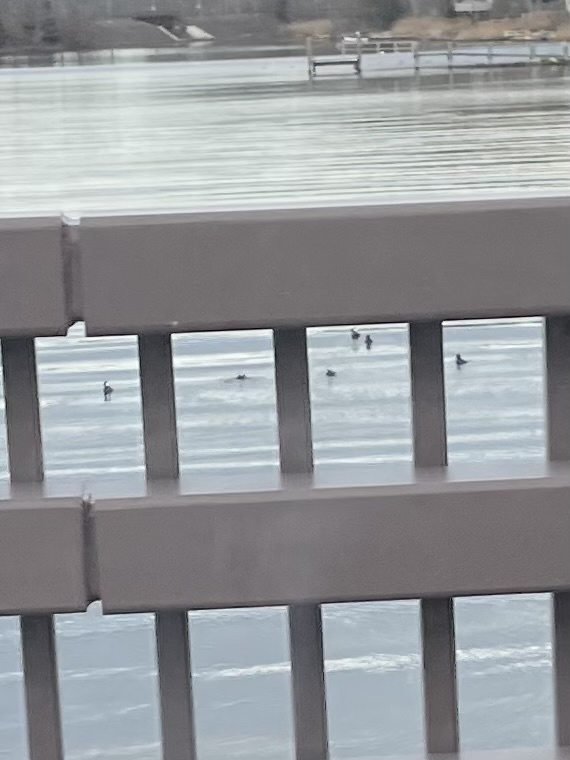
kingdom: Animalia
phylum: Chordata
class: Aves
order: Anseriformes
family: Anatidae
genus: Lophodytes
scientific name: Lophodytes cucullatus
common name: Hooded merganser
